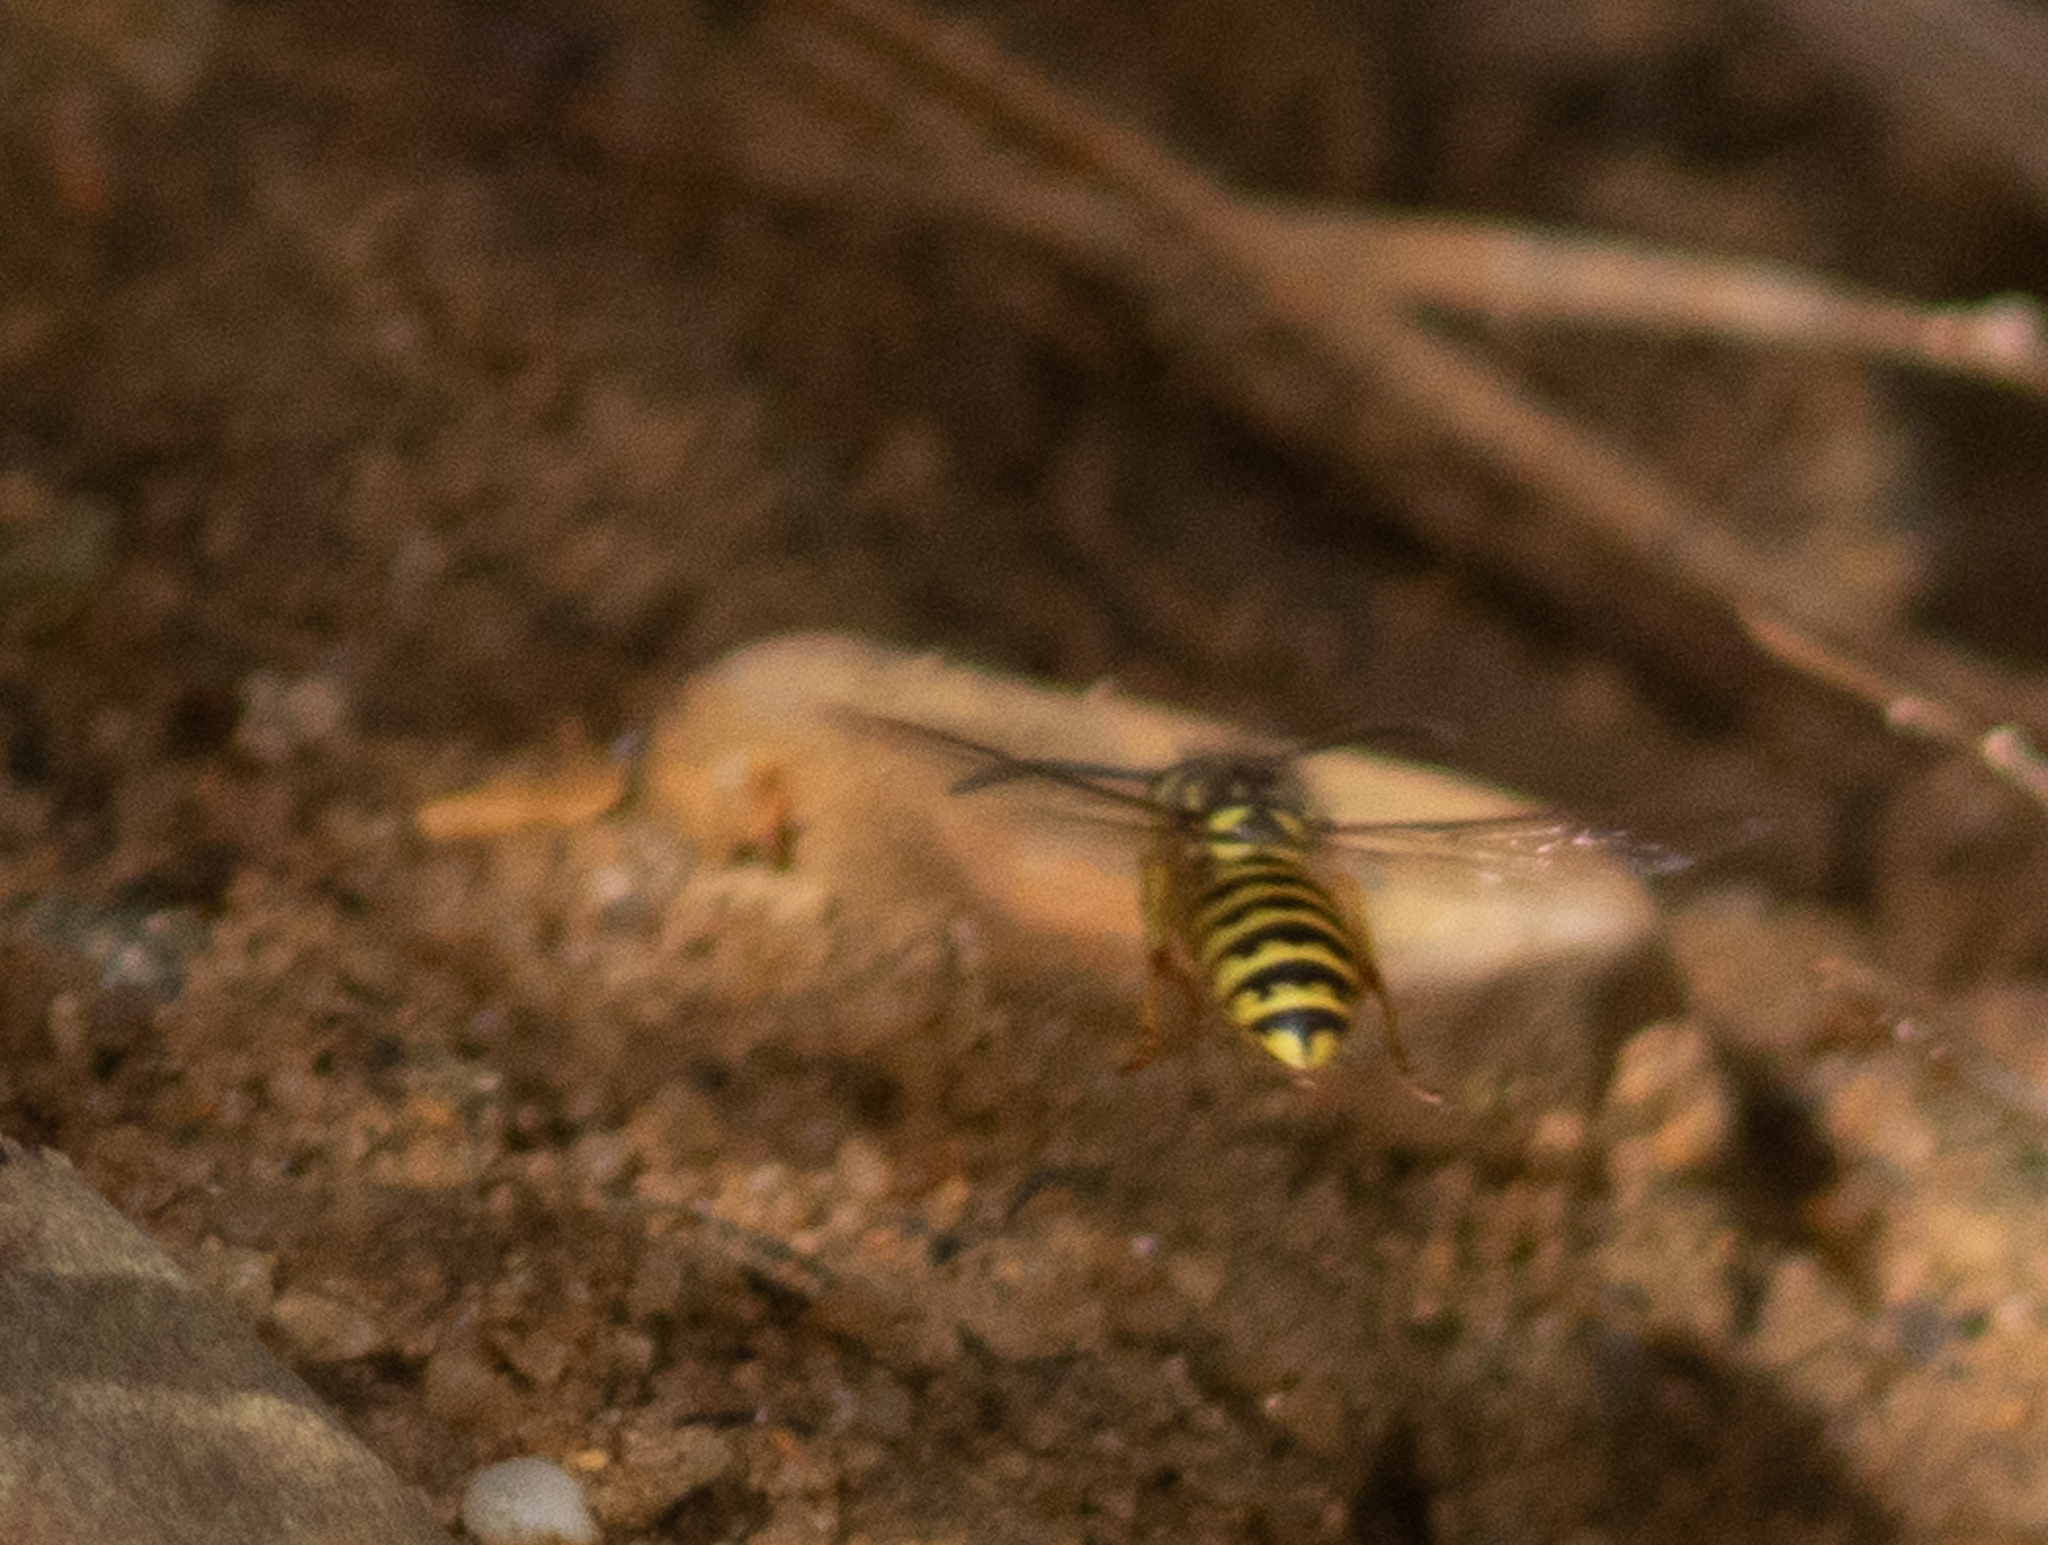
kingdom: Animalia
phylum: Arthropoda
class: Insecta
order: Hymenoptera
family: Vespidae
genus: Vespula
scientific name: Vespula flavopilosa
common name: Downy yellowjacket
